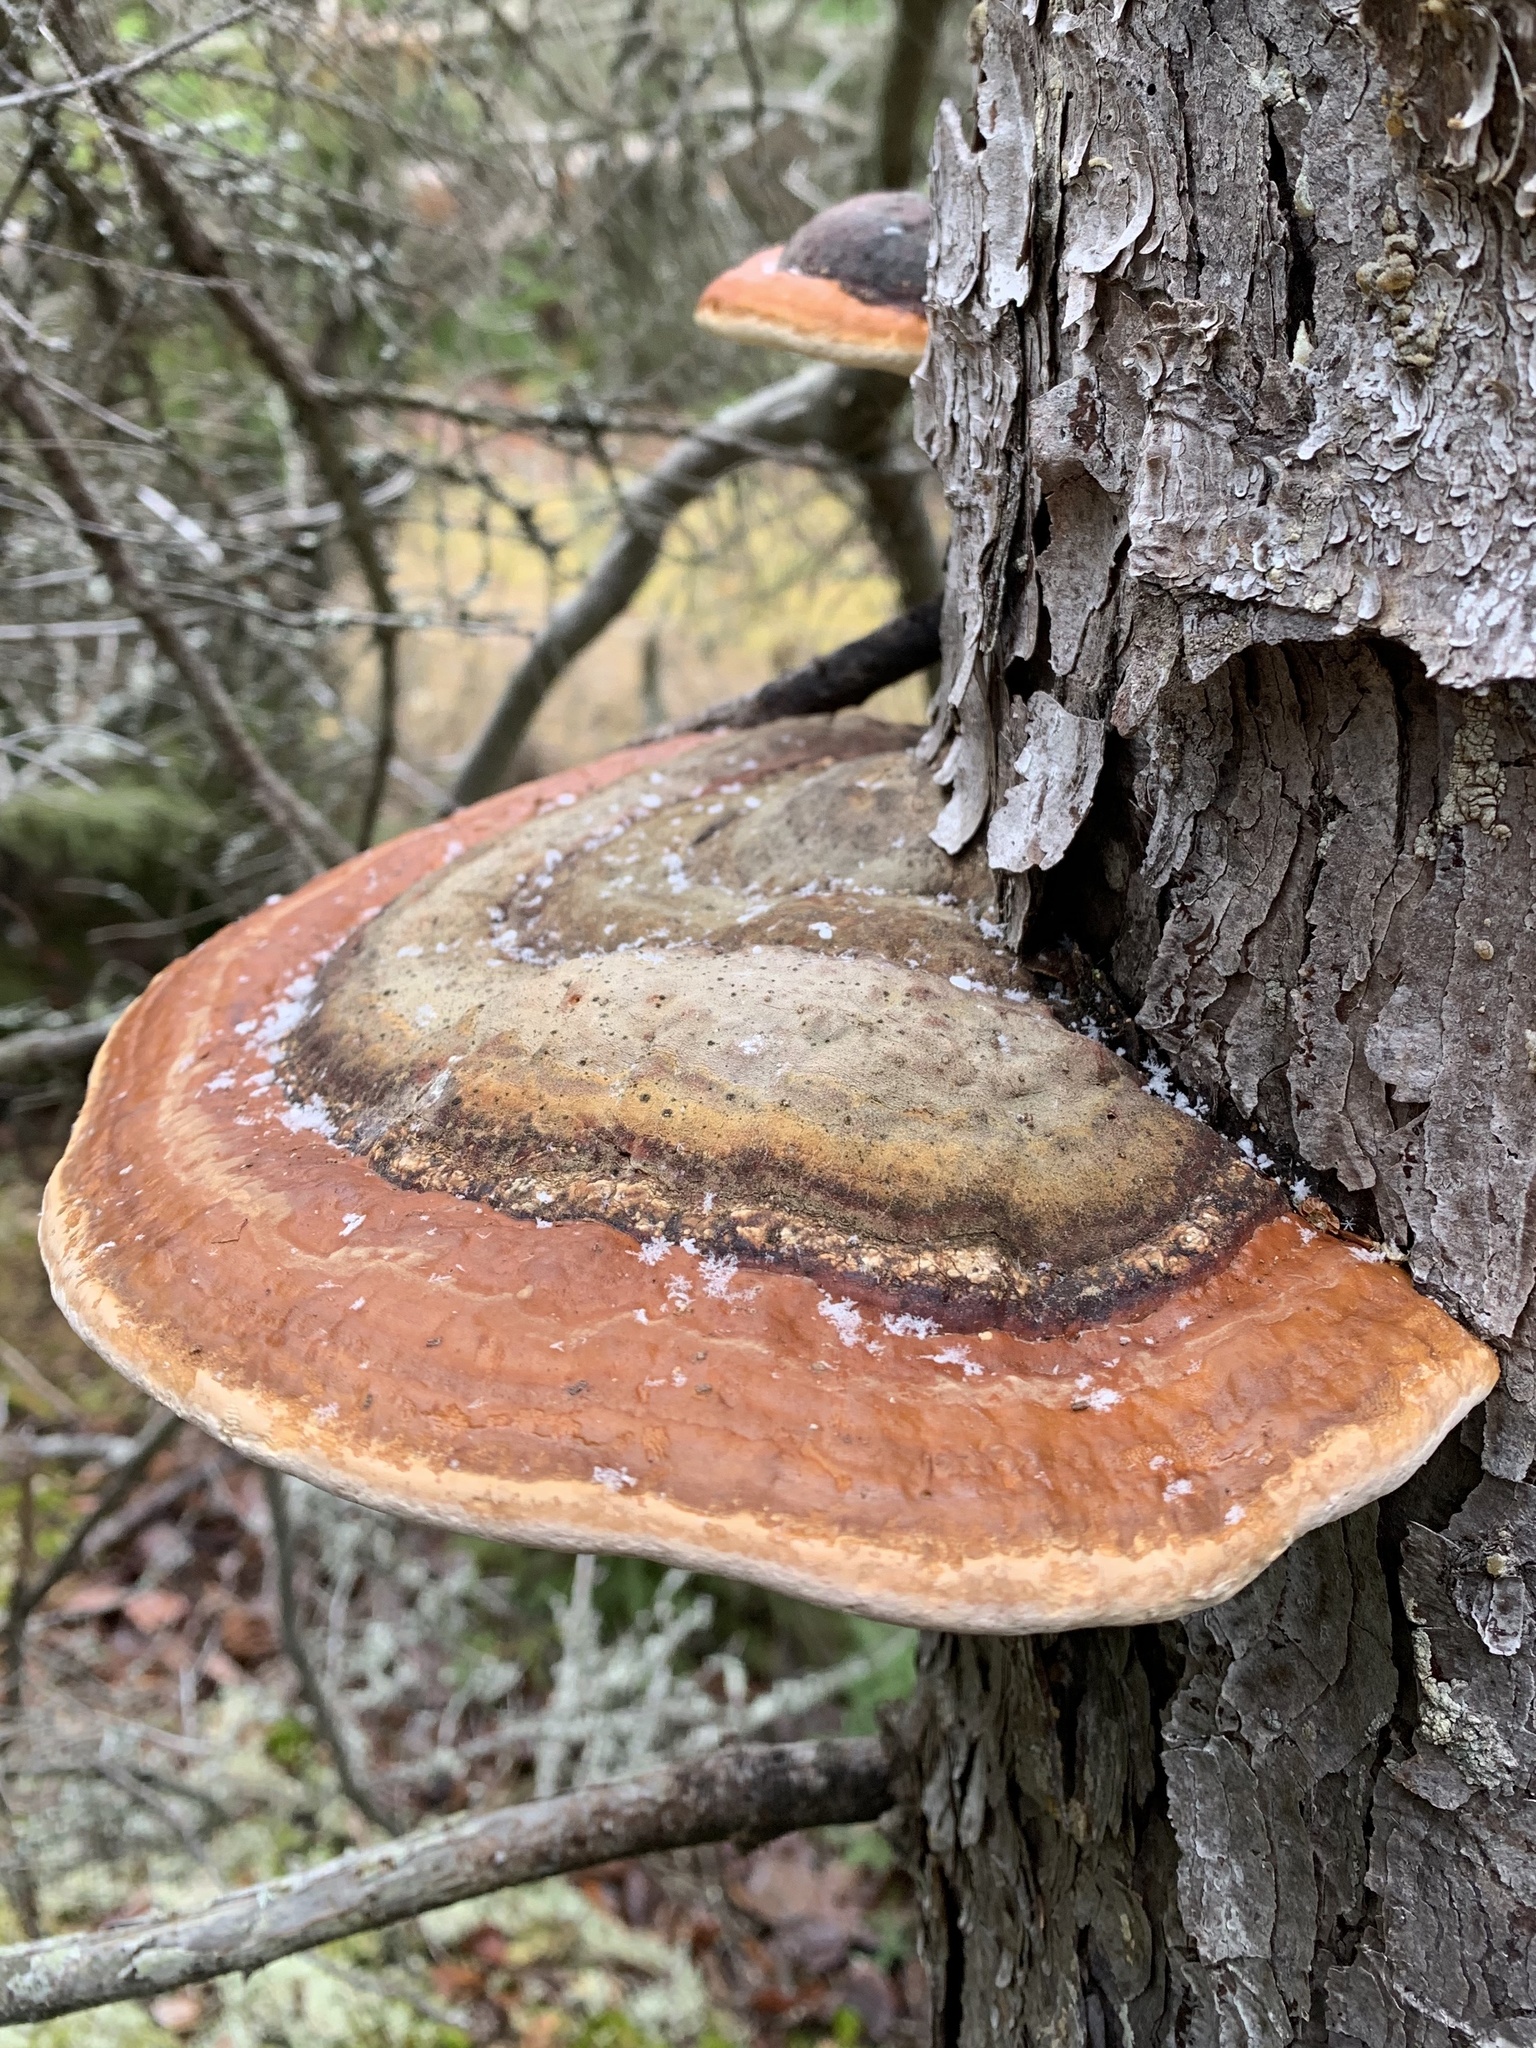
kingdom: Fungi
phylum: Basidiomycota
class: Agaricomycetes
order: Polyporales
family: Fomitopsidaceae
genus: Fomitopsis
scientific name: Fomitopsis mounceae
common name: Northern red belt
